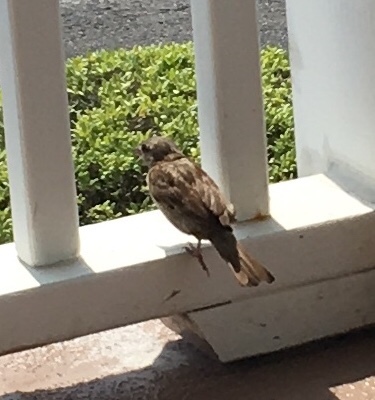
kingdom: Animalia
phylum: Chordata
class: Aves
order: Passeriformes
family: Passeridae
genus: Passer
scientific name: Passer domesticus
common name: House sparrow
